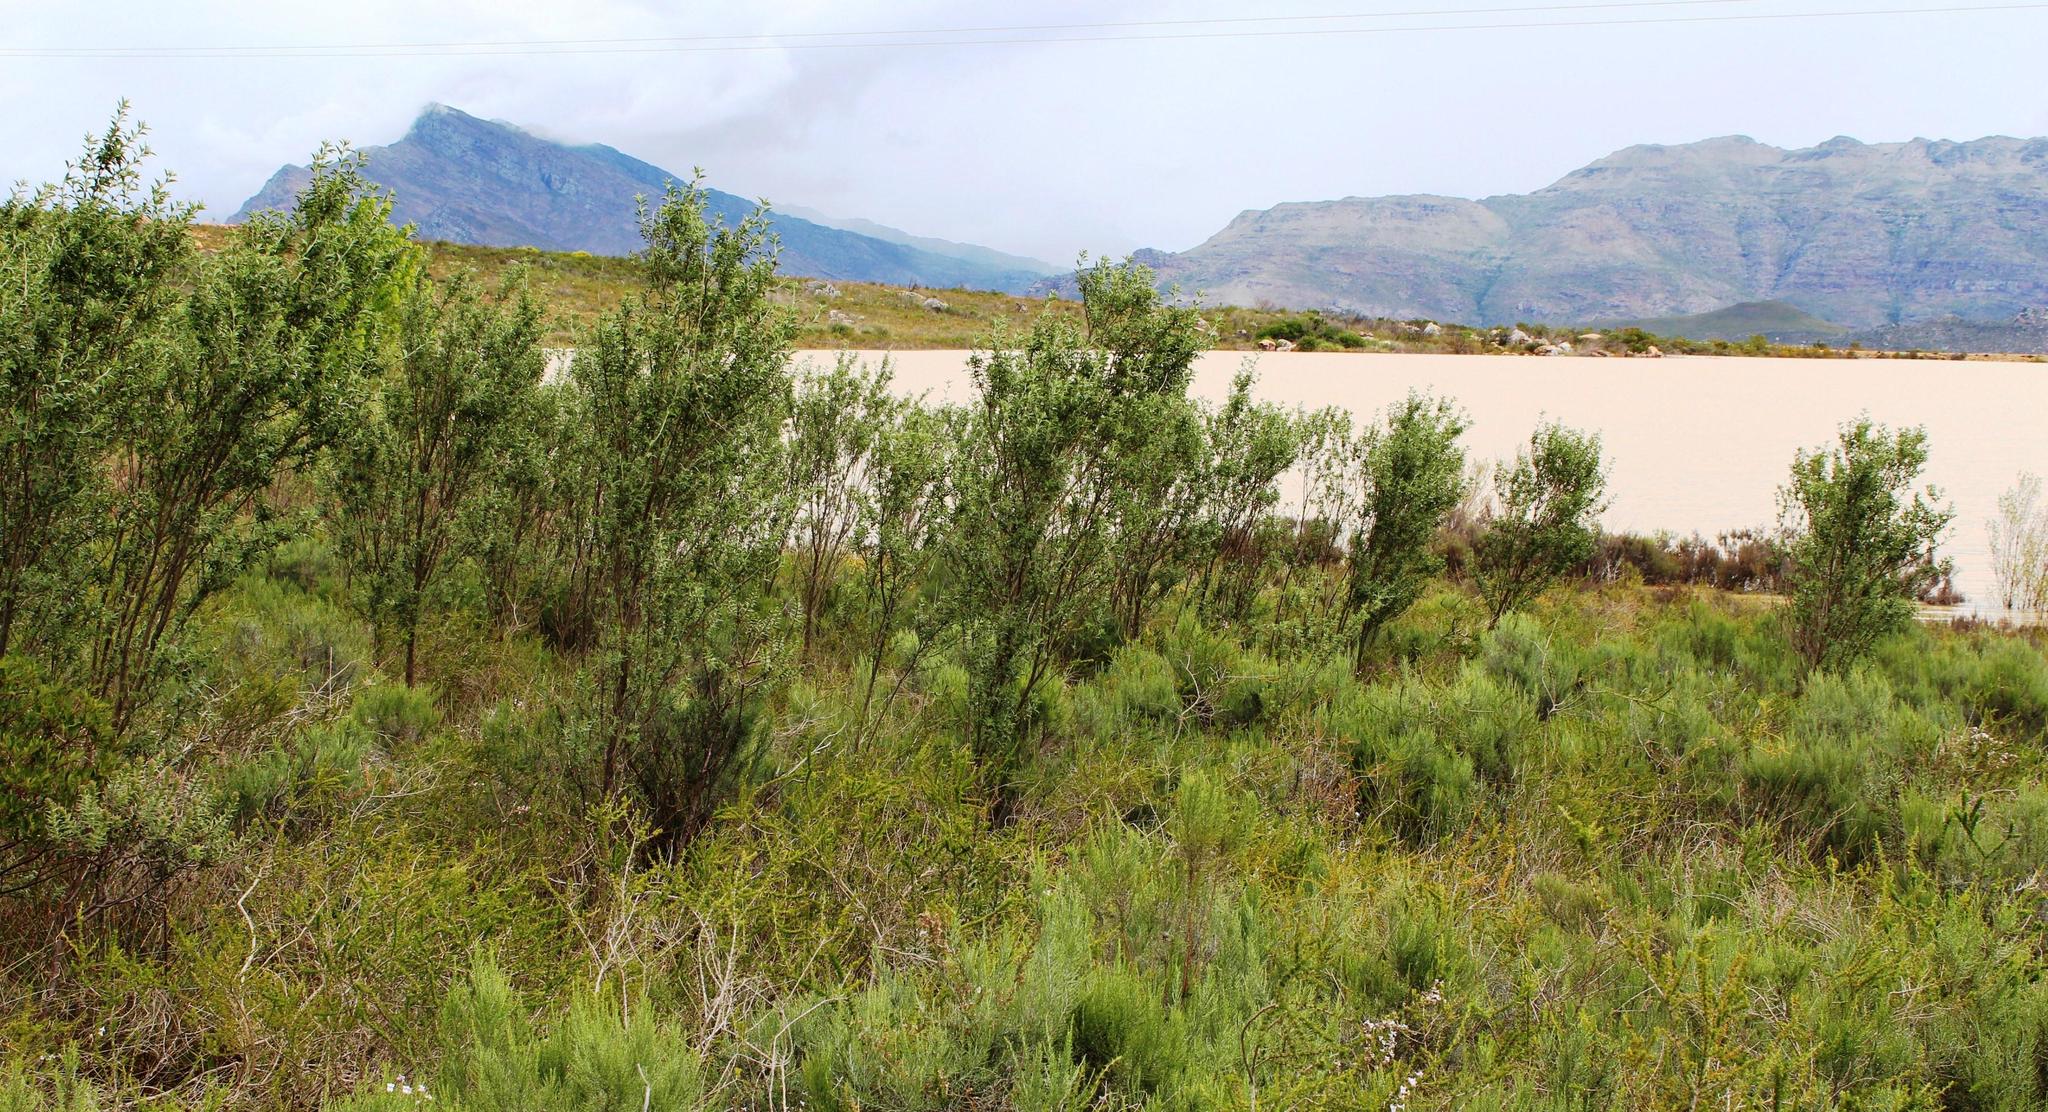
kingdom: Plantae
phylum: Tracheophyta
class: Magnoliopsida
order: Fabales
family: Fabaceae
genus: Psoralea
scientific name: Psoralea striata
